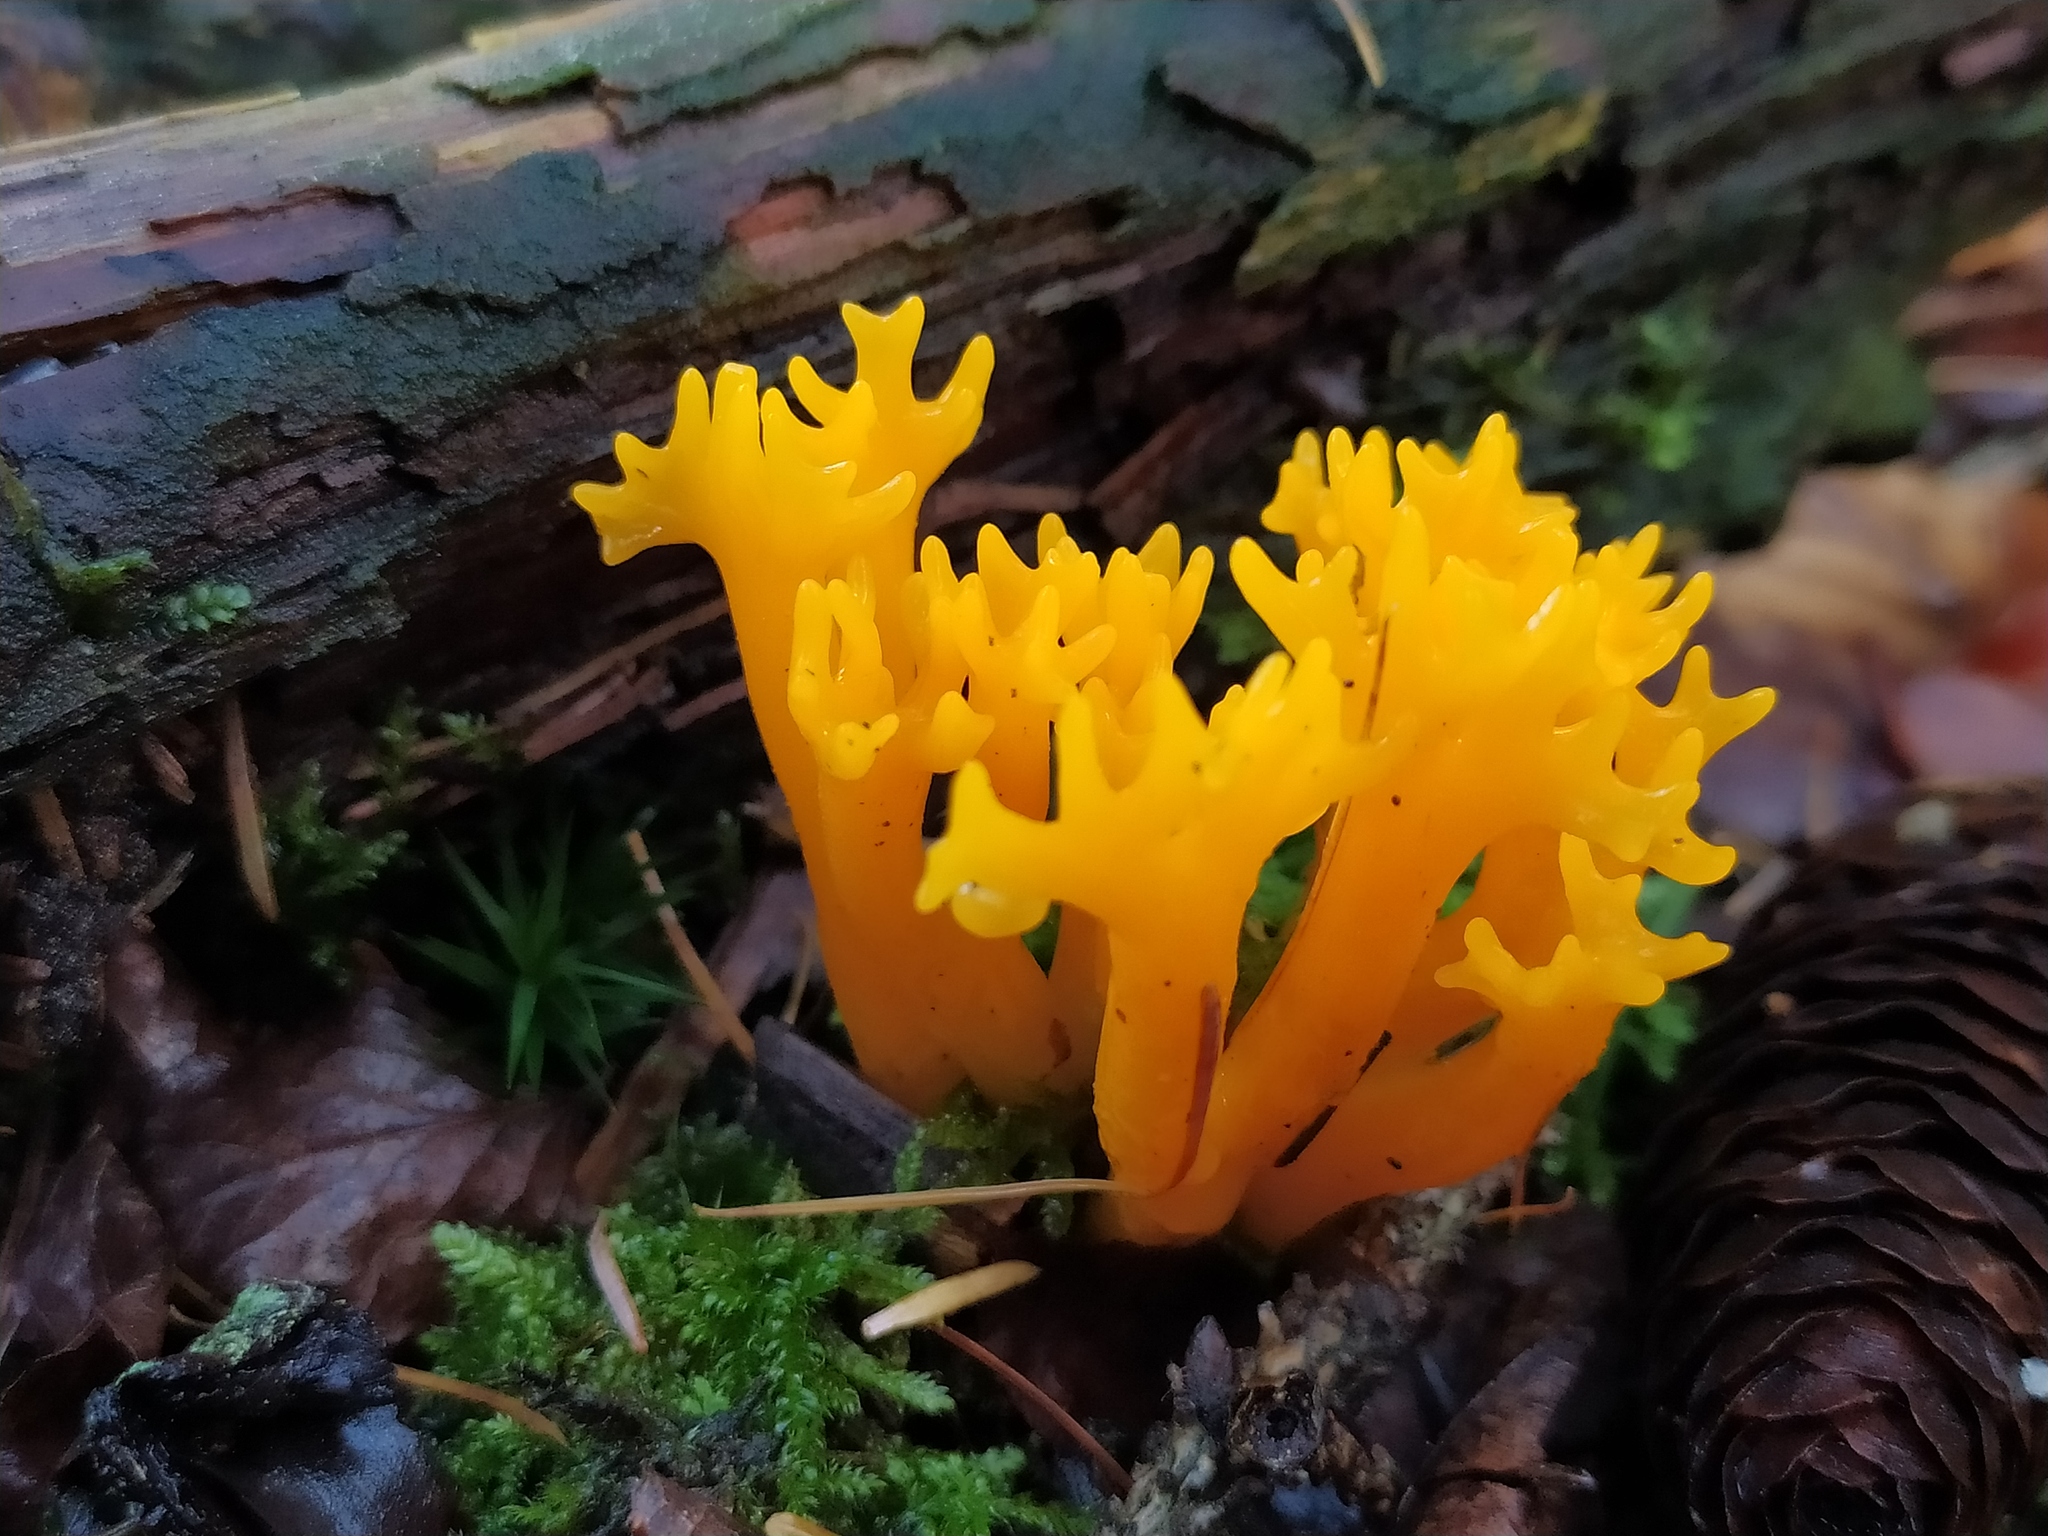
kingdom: Fungi
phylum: Basidiomycota
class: Dacrymycetes
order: Dacrymycetales
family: Dacrymycetaceae
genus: Calocera
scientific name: Calocera viscosa
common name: Yellow stagshorn
